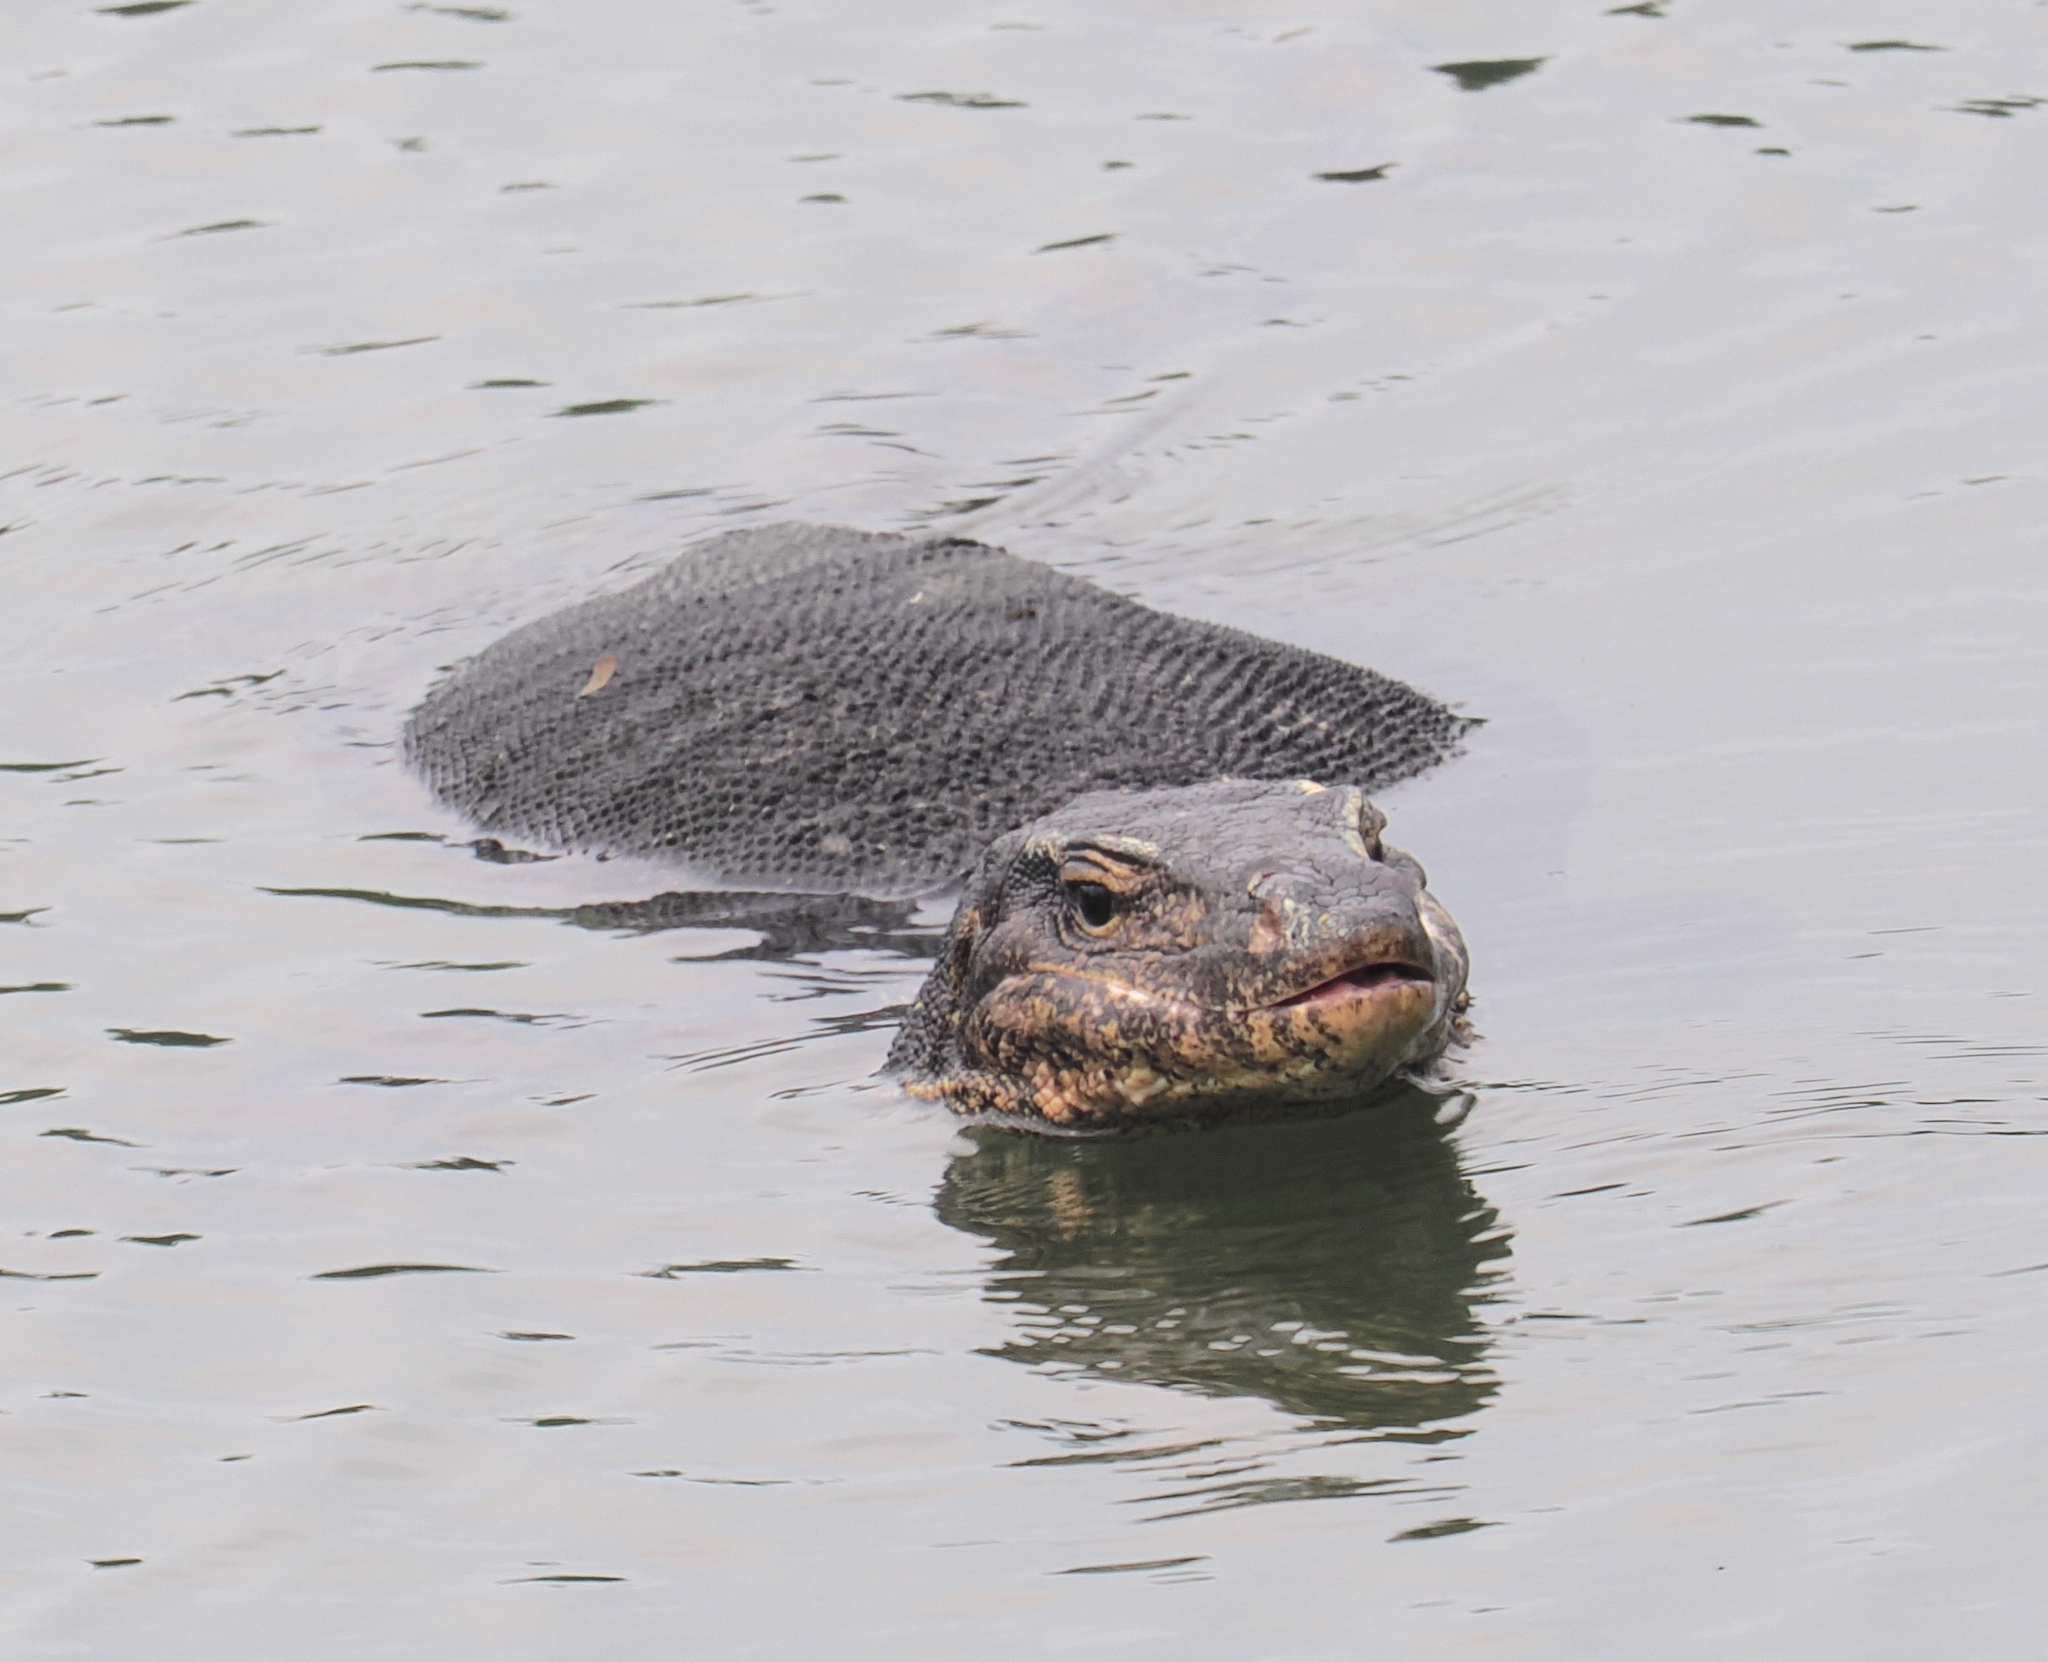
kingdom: Animalia
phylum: Chordata
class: Squamata
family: Varanidae
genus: Varanus
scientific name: Varanus salvator
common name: Common water monitor
